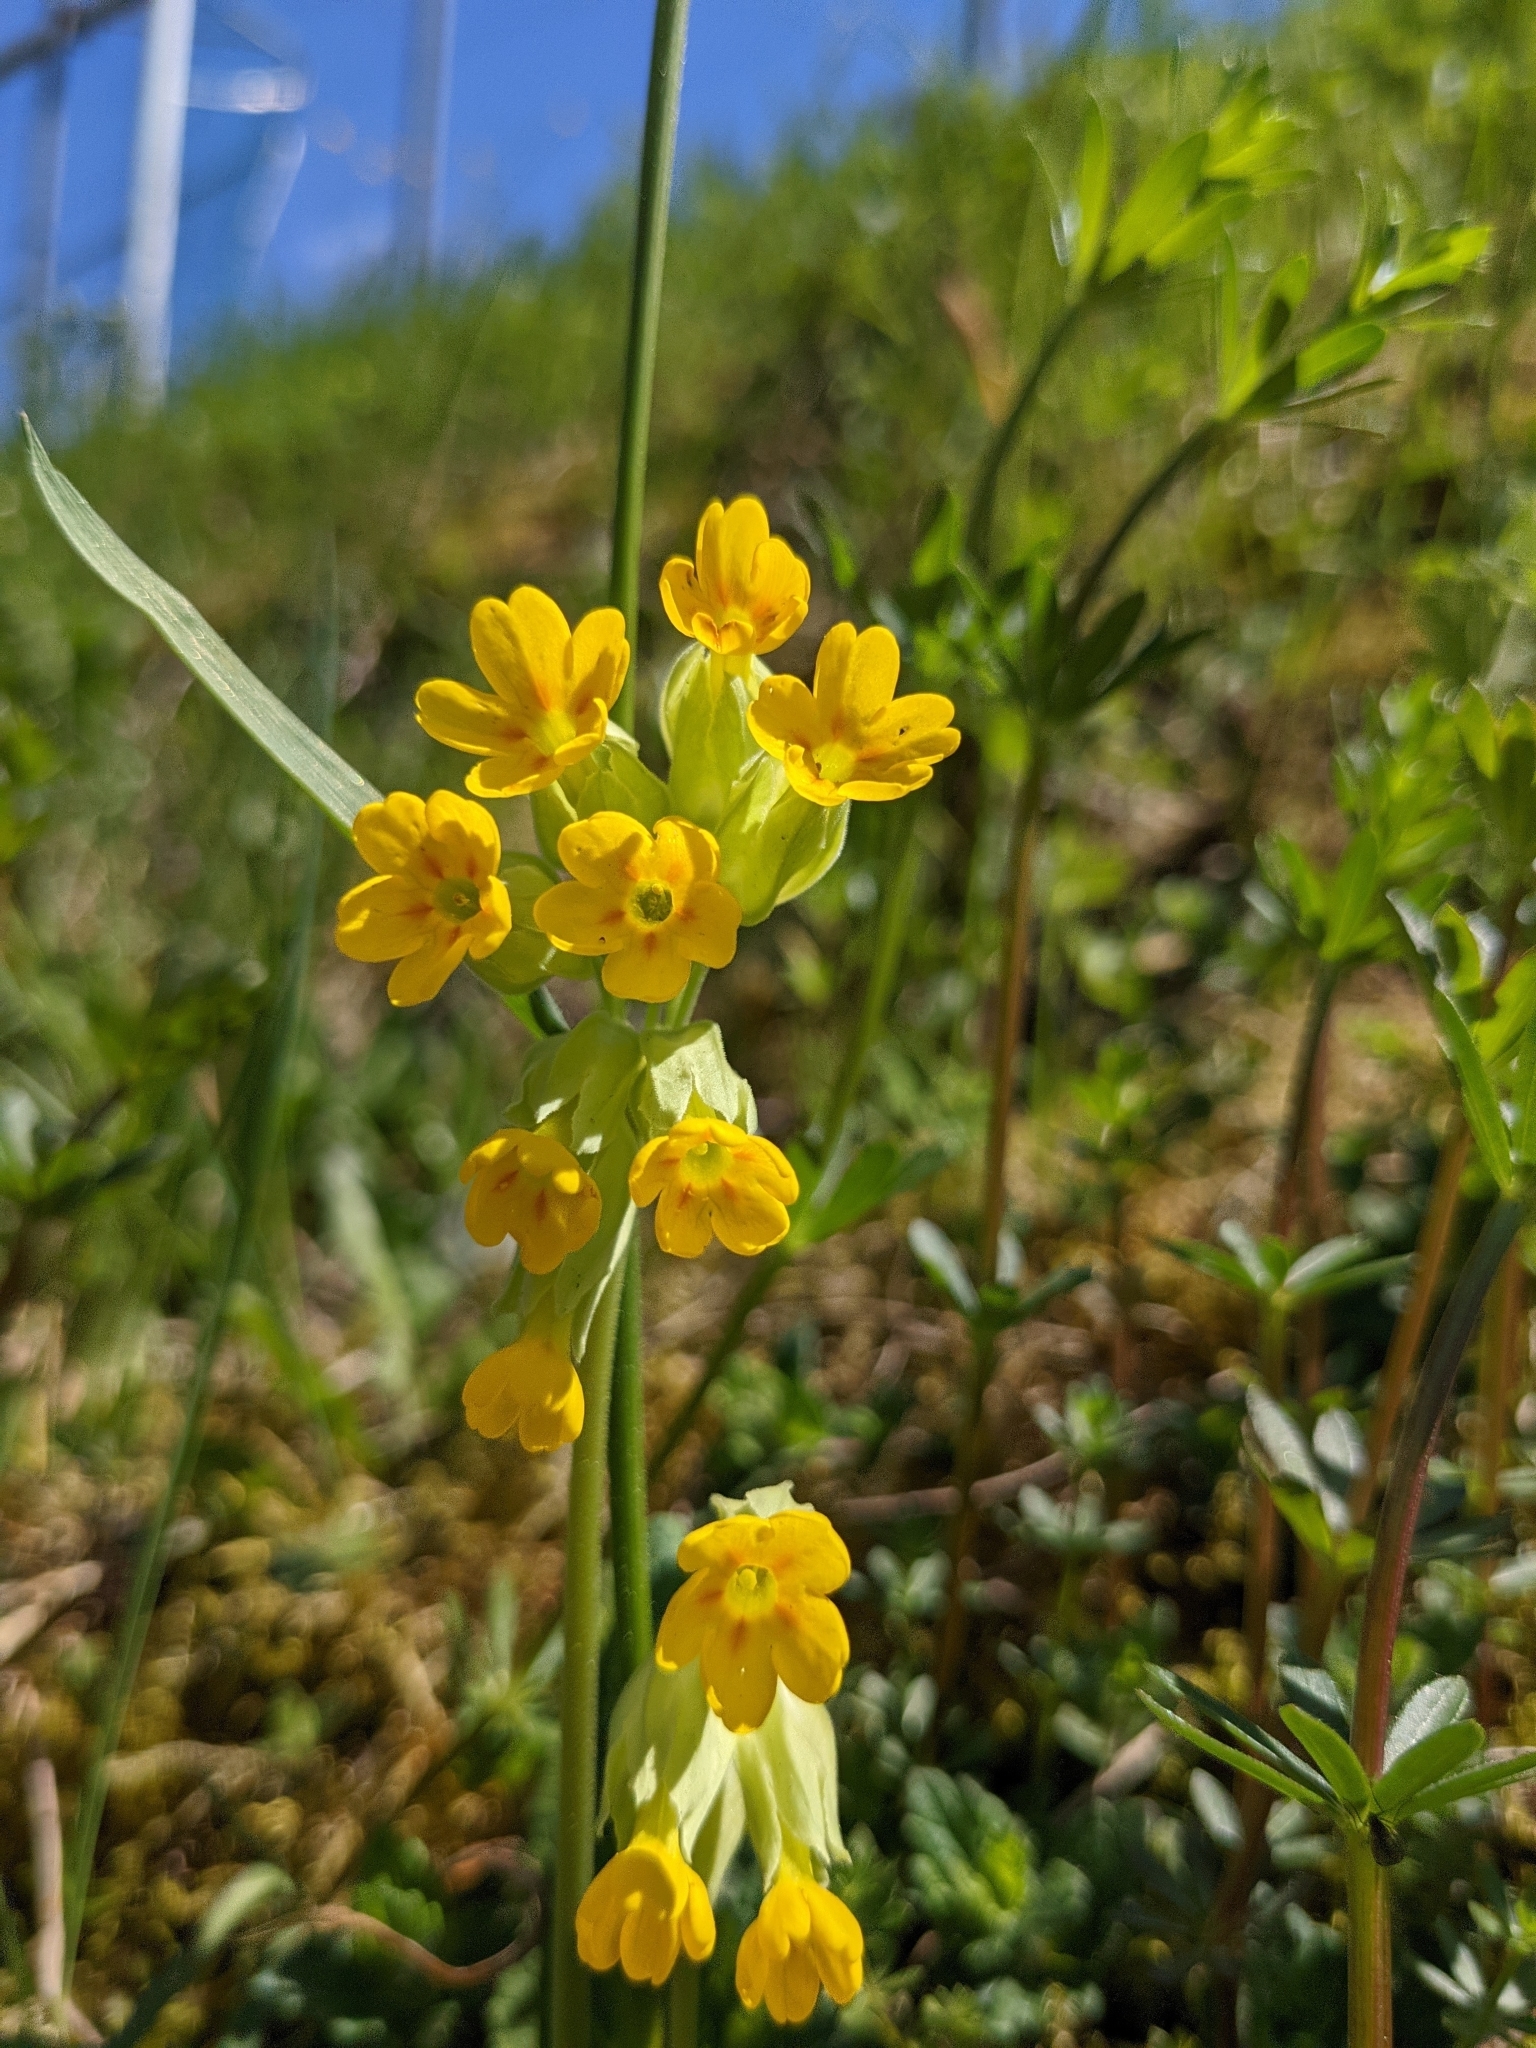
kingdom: Plantae
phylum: Tracheophyta
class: Magnoliopsida
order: Ericales
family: Primulaceae
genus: Primula
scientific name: Primula veris
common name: Cowslip
